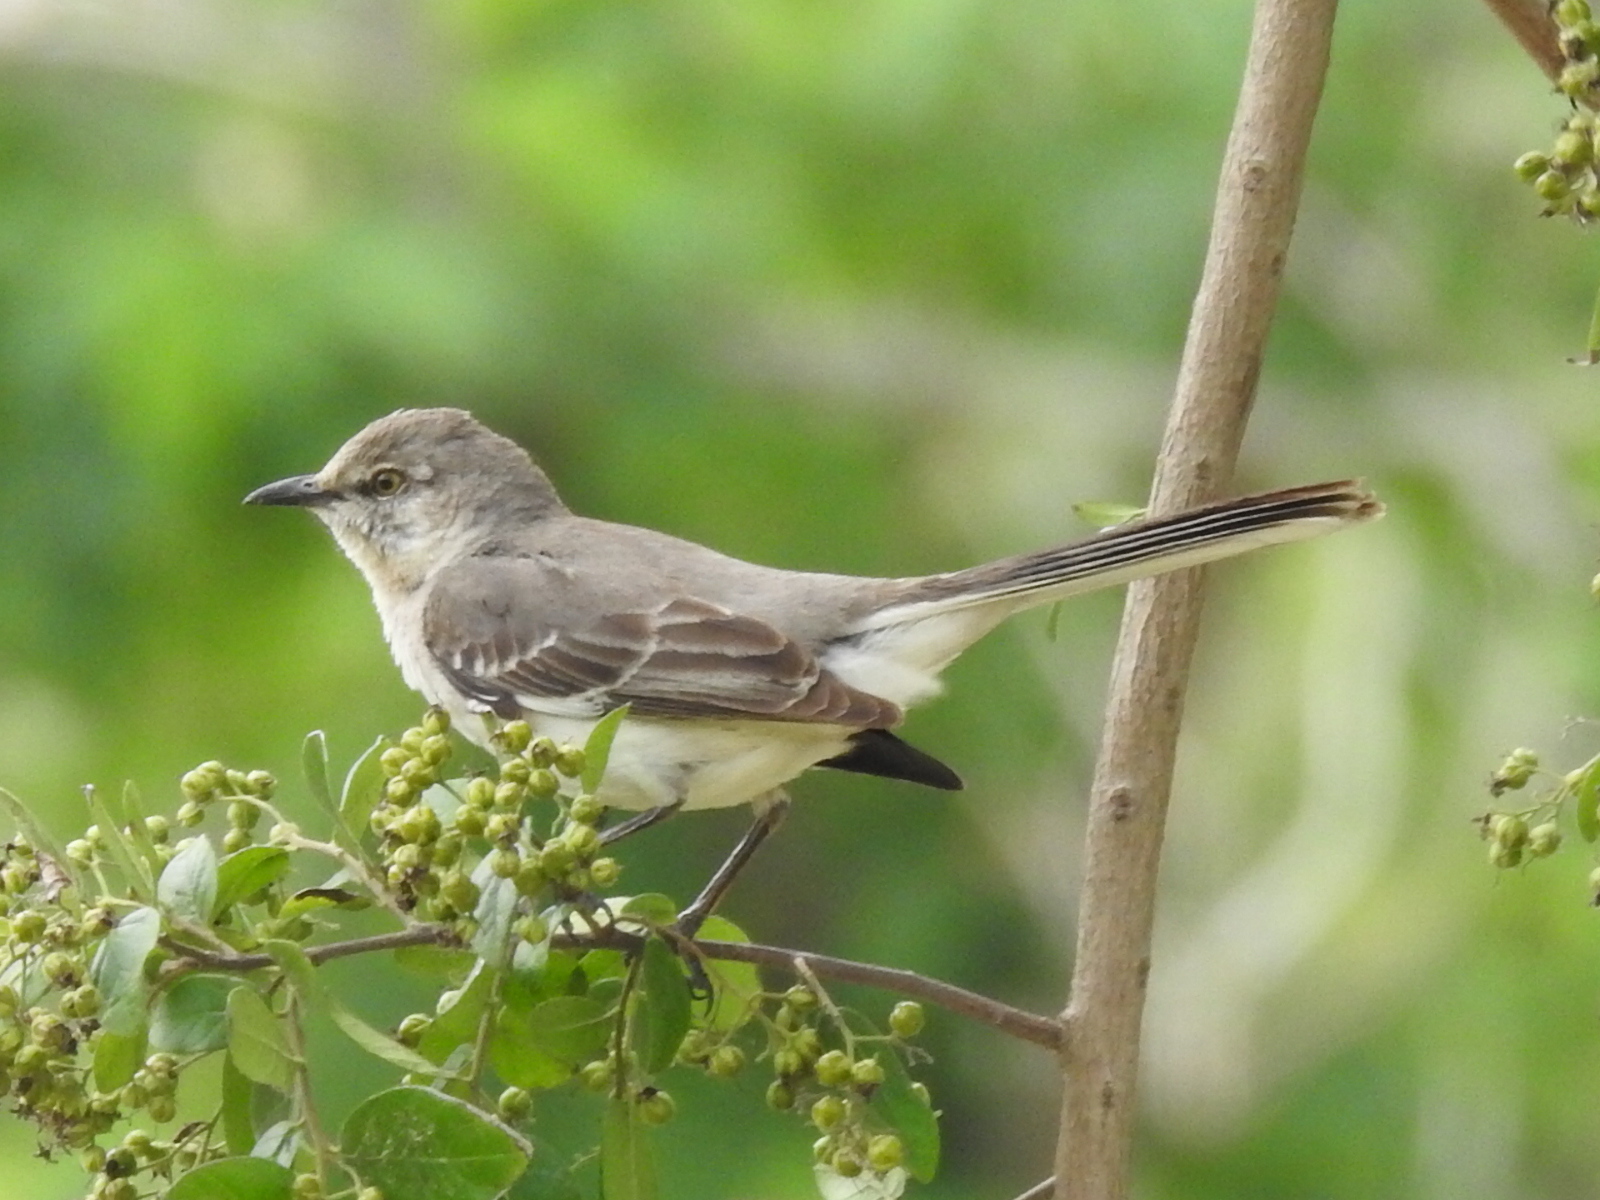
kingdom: Animalia
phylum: Chordata
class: Aves
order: Passeriformes
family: Mimidae
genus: Mimus
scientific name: Mimus polyglottos
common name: Northern mockingbird
